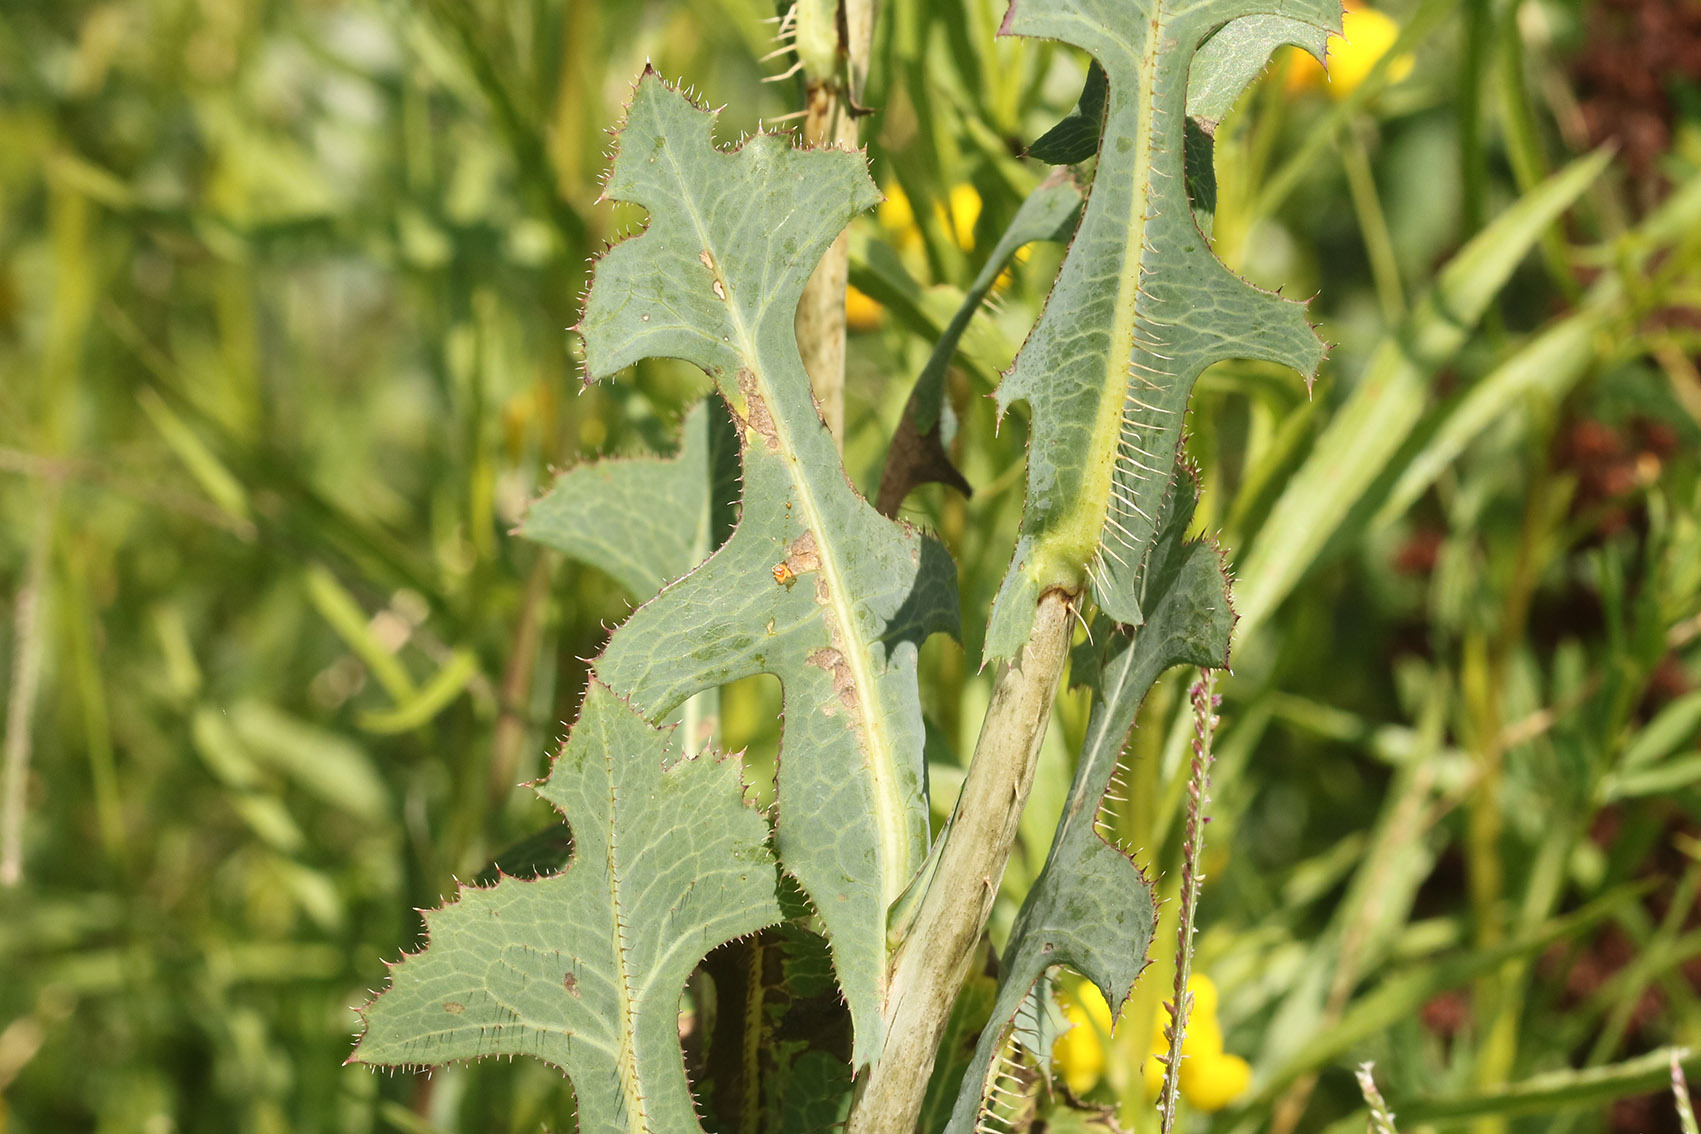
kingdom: Plantae
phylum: Tracheophyta
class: Magnoliopsida
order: Asterales
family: Asteraceae
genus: Lactuca
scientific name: Lactuca serriola
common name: Prickly lettuce
